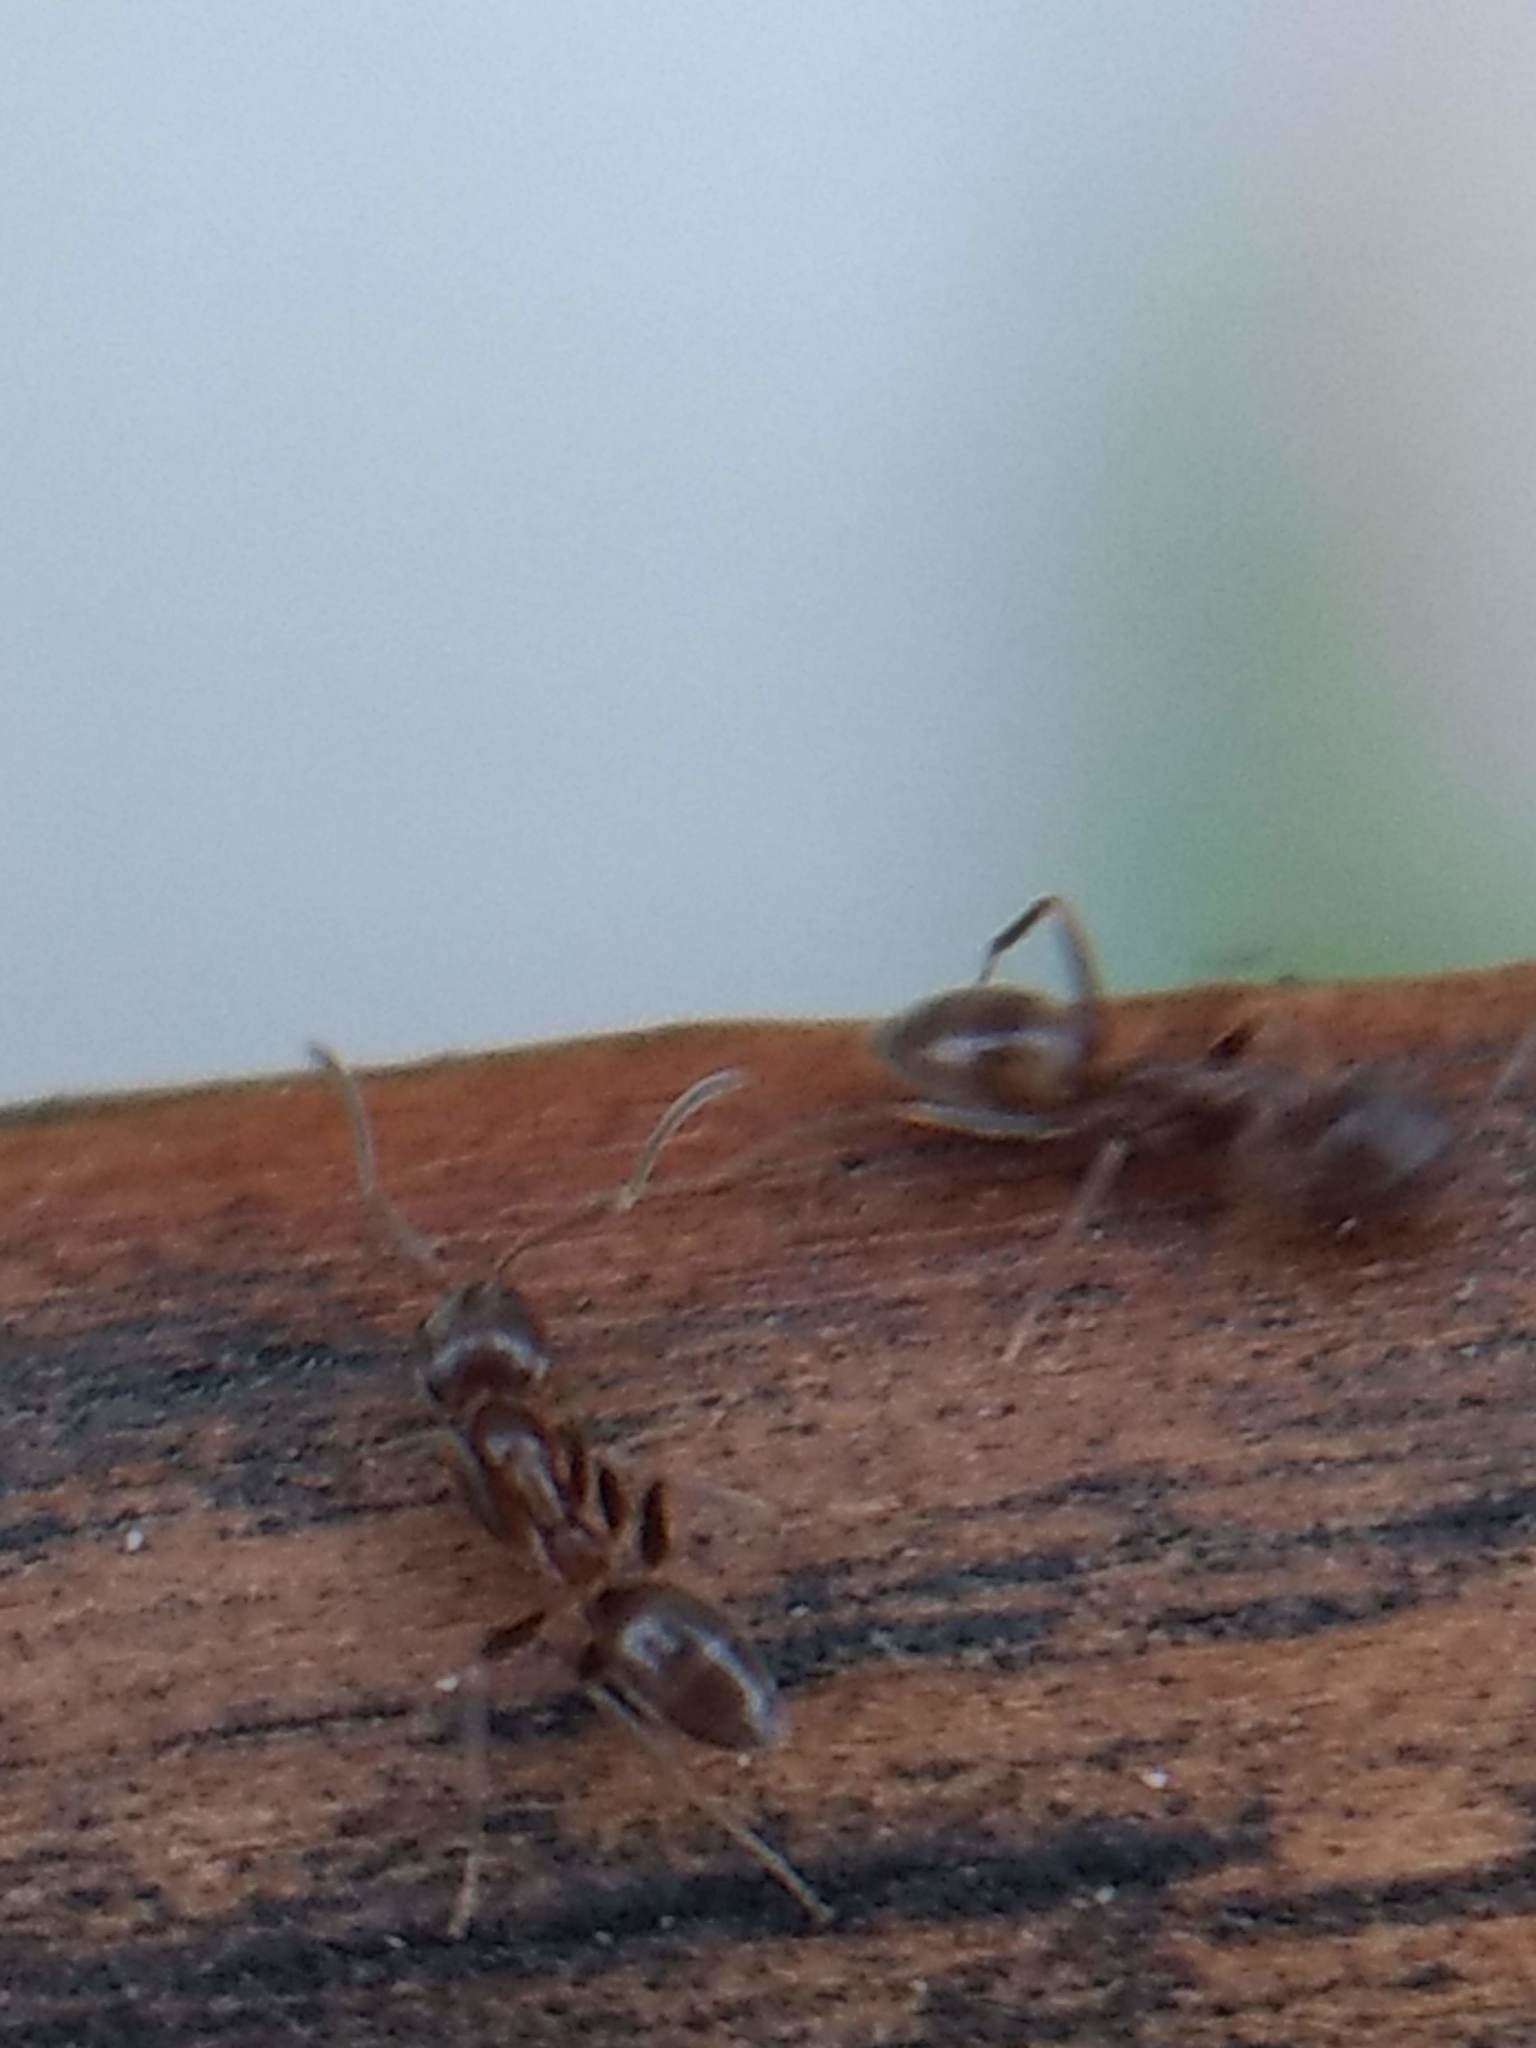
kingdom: Animalia
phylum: Arthropoda
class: Insecta
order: Hymenoptera
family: Formicidae
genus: Linepithema
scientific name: Linepithema humile
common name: Argentine ant
